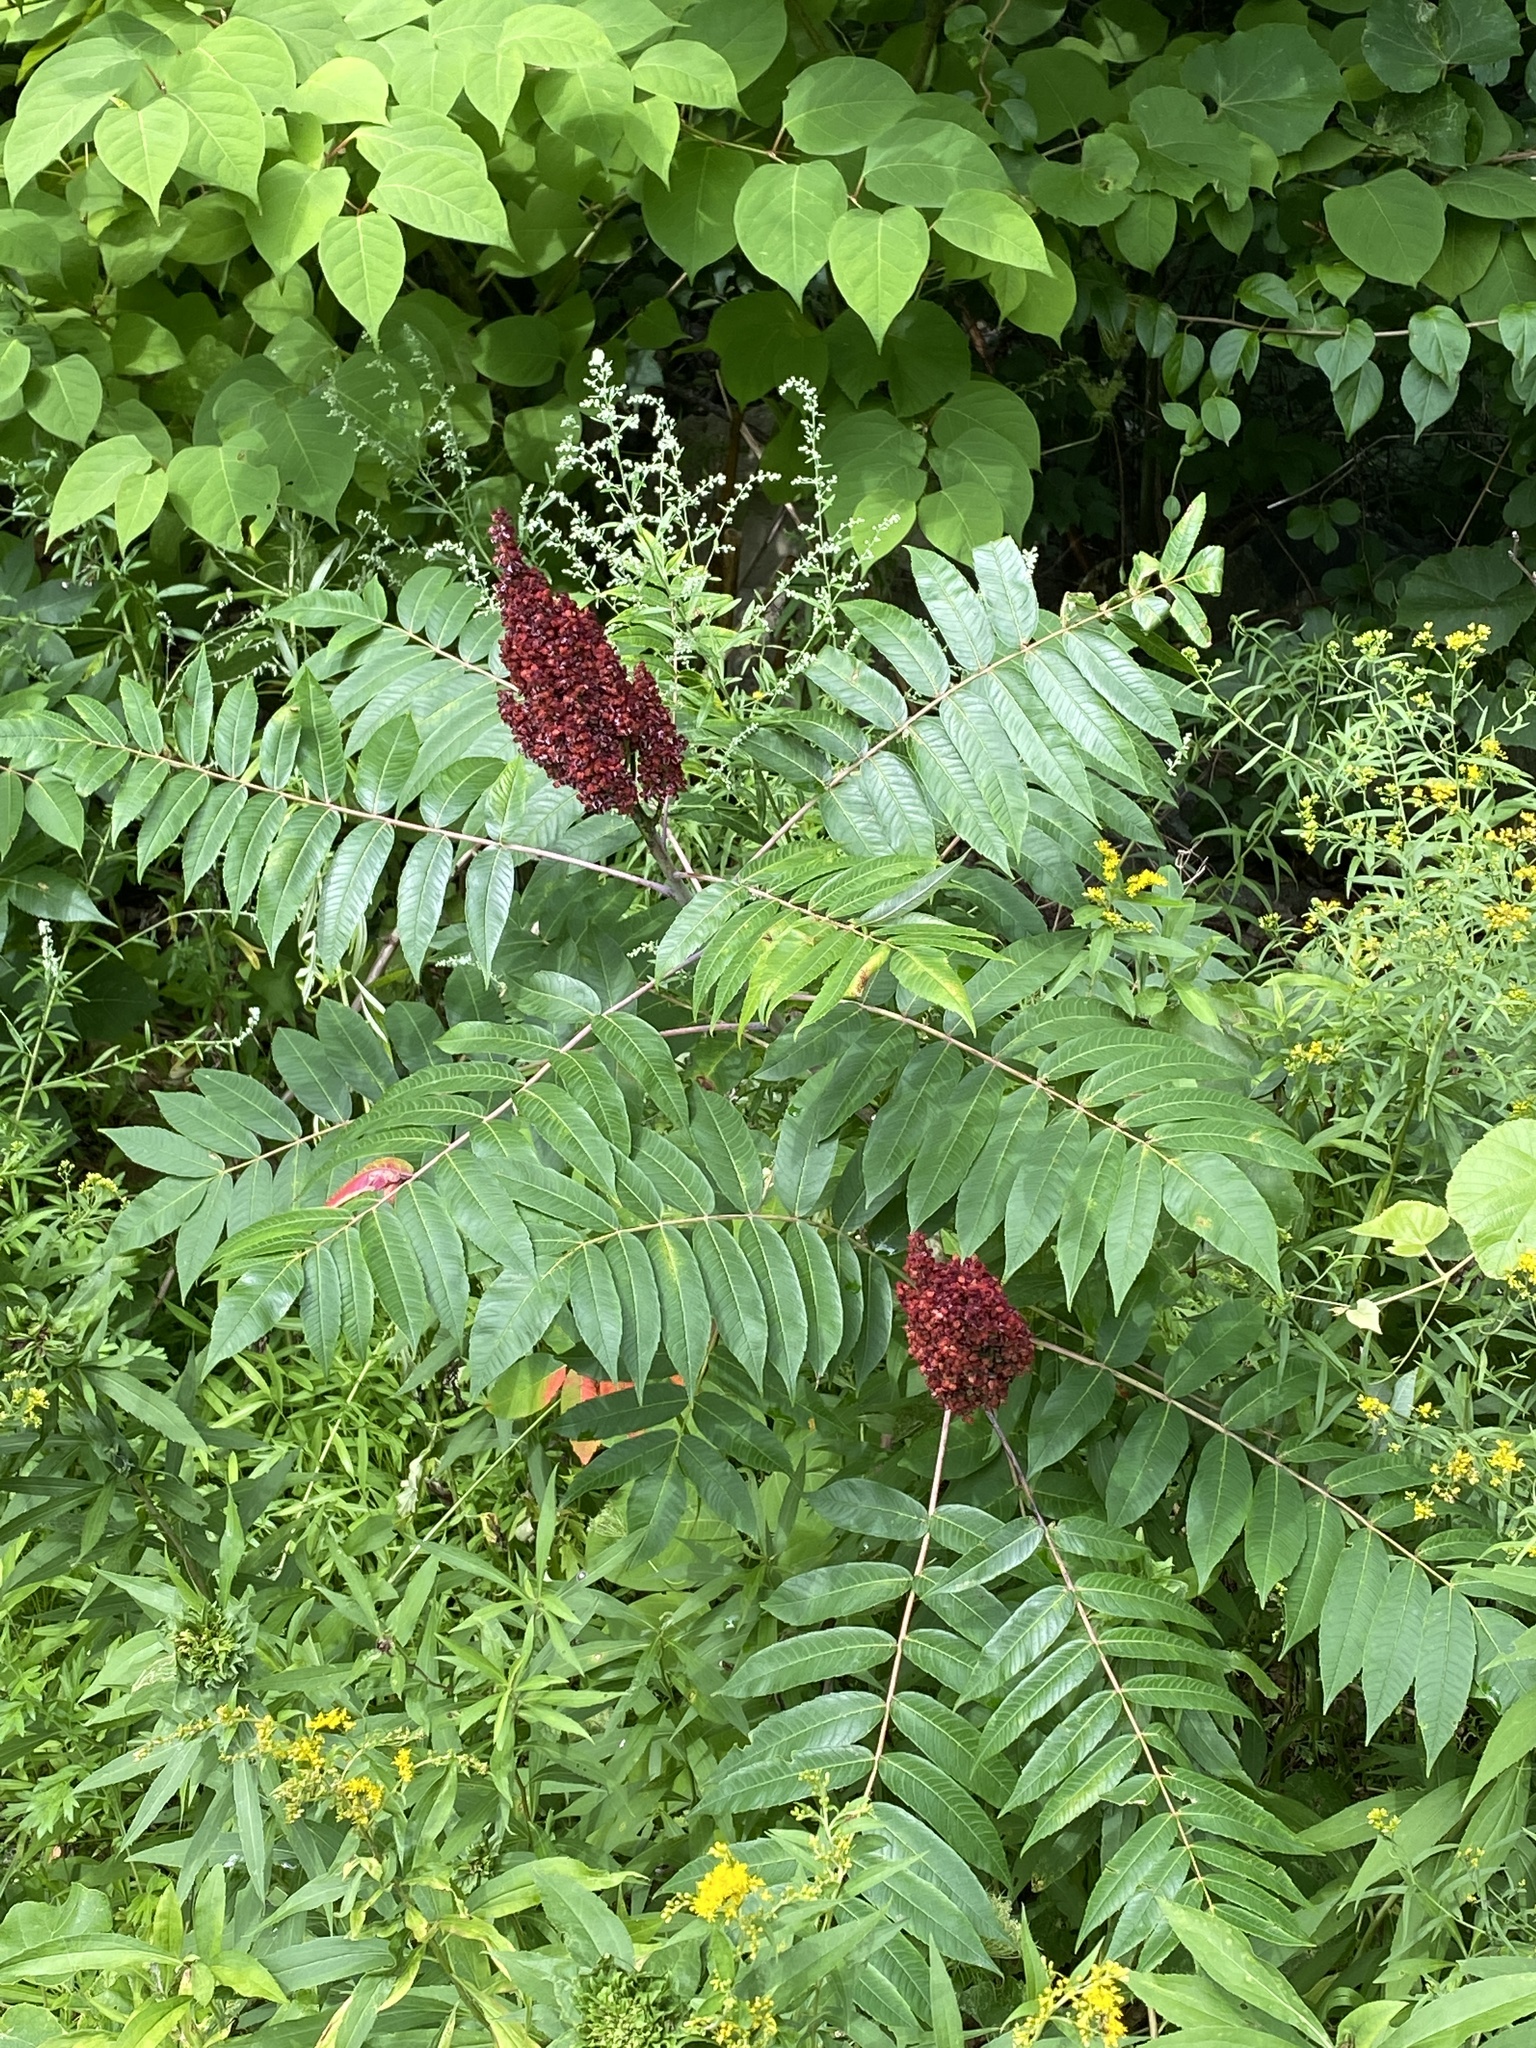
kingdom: Plantae
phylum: Tracheophyta
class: Magnoliopsida
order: Sapindales
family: Anacardiaceae
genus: Rhus
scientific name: Rhus glabra
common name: Scarlet sumac
